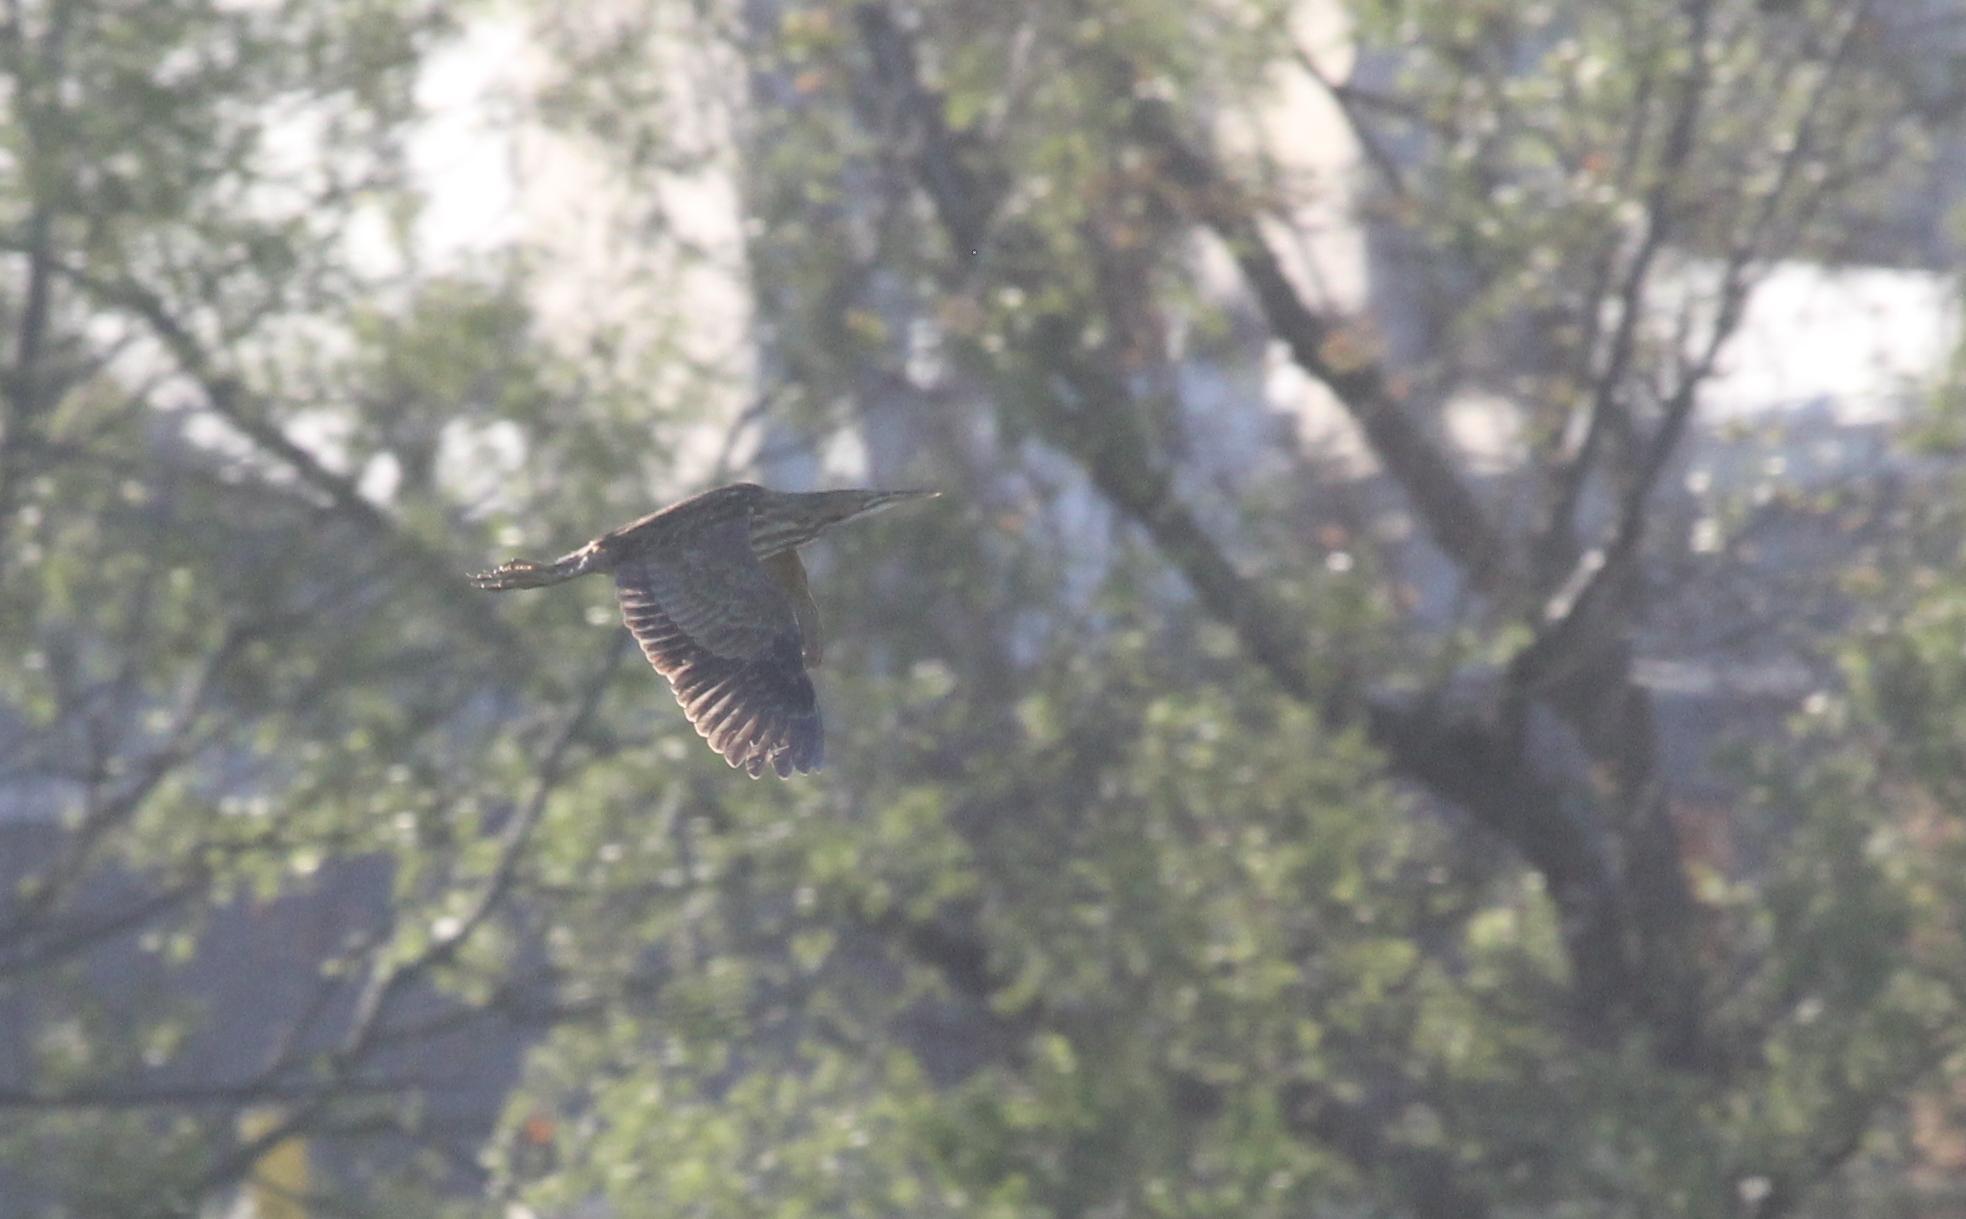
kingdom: Animalia
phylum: Chordata
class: Aves
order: Pelecaniformes
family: Ardeidae
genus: Botaurus
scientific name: Botaurus lentiginosus
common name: American bittern
